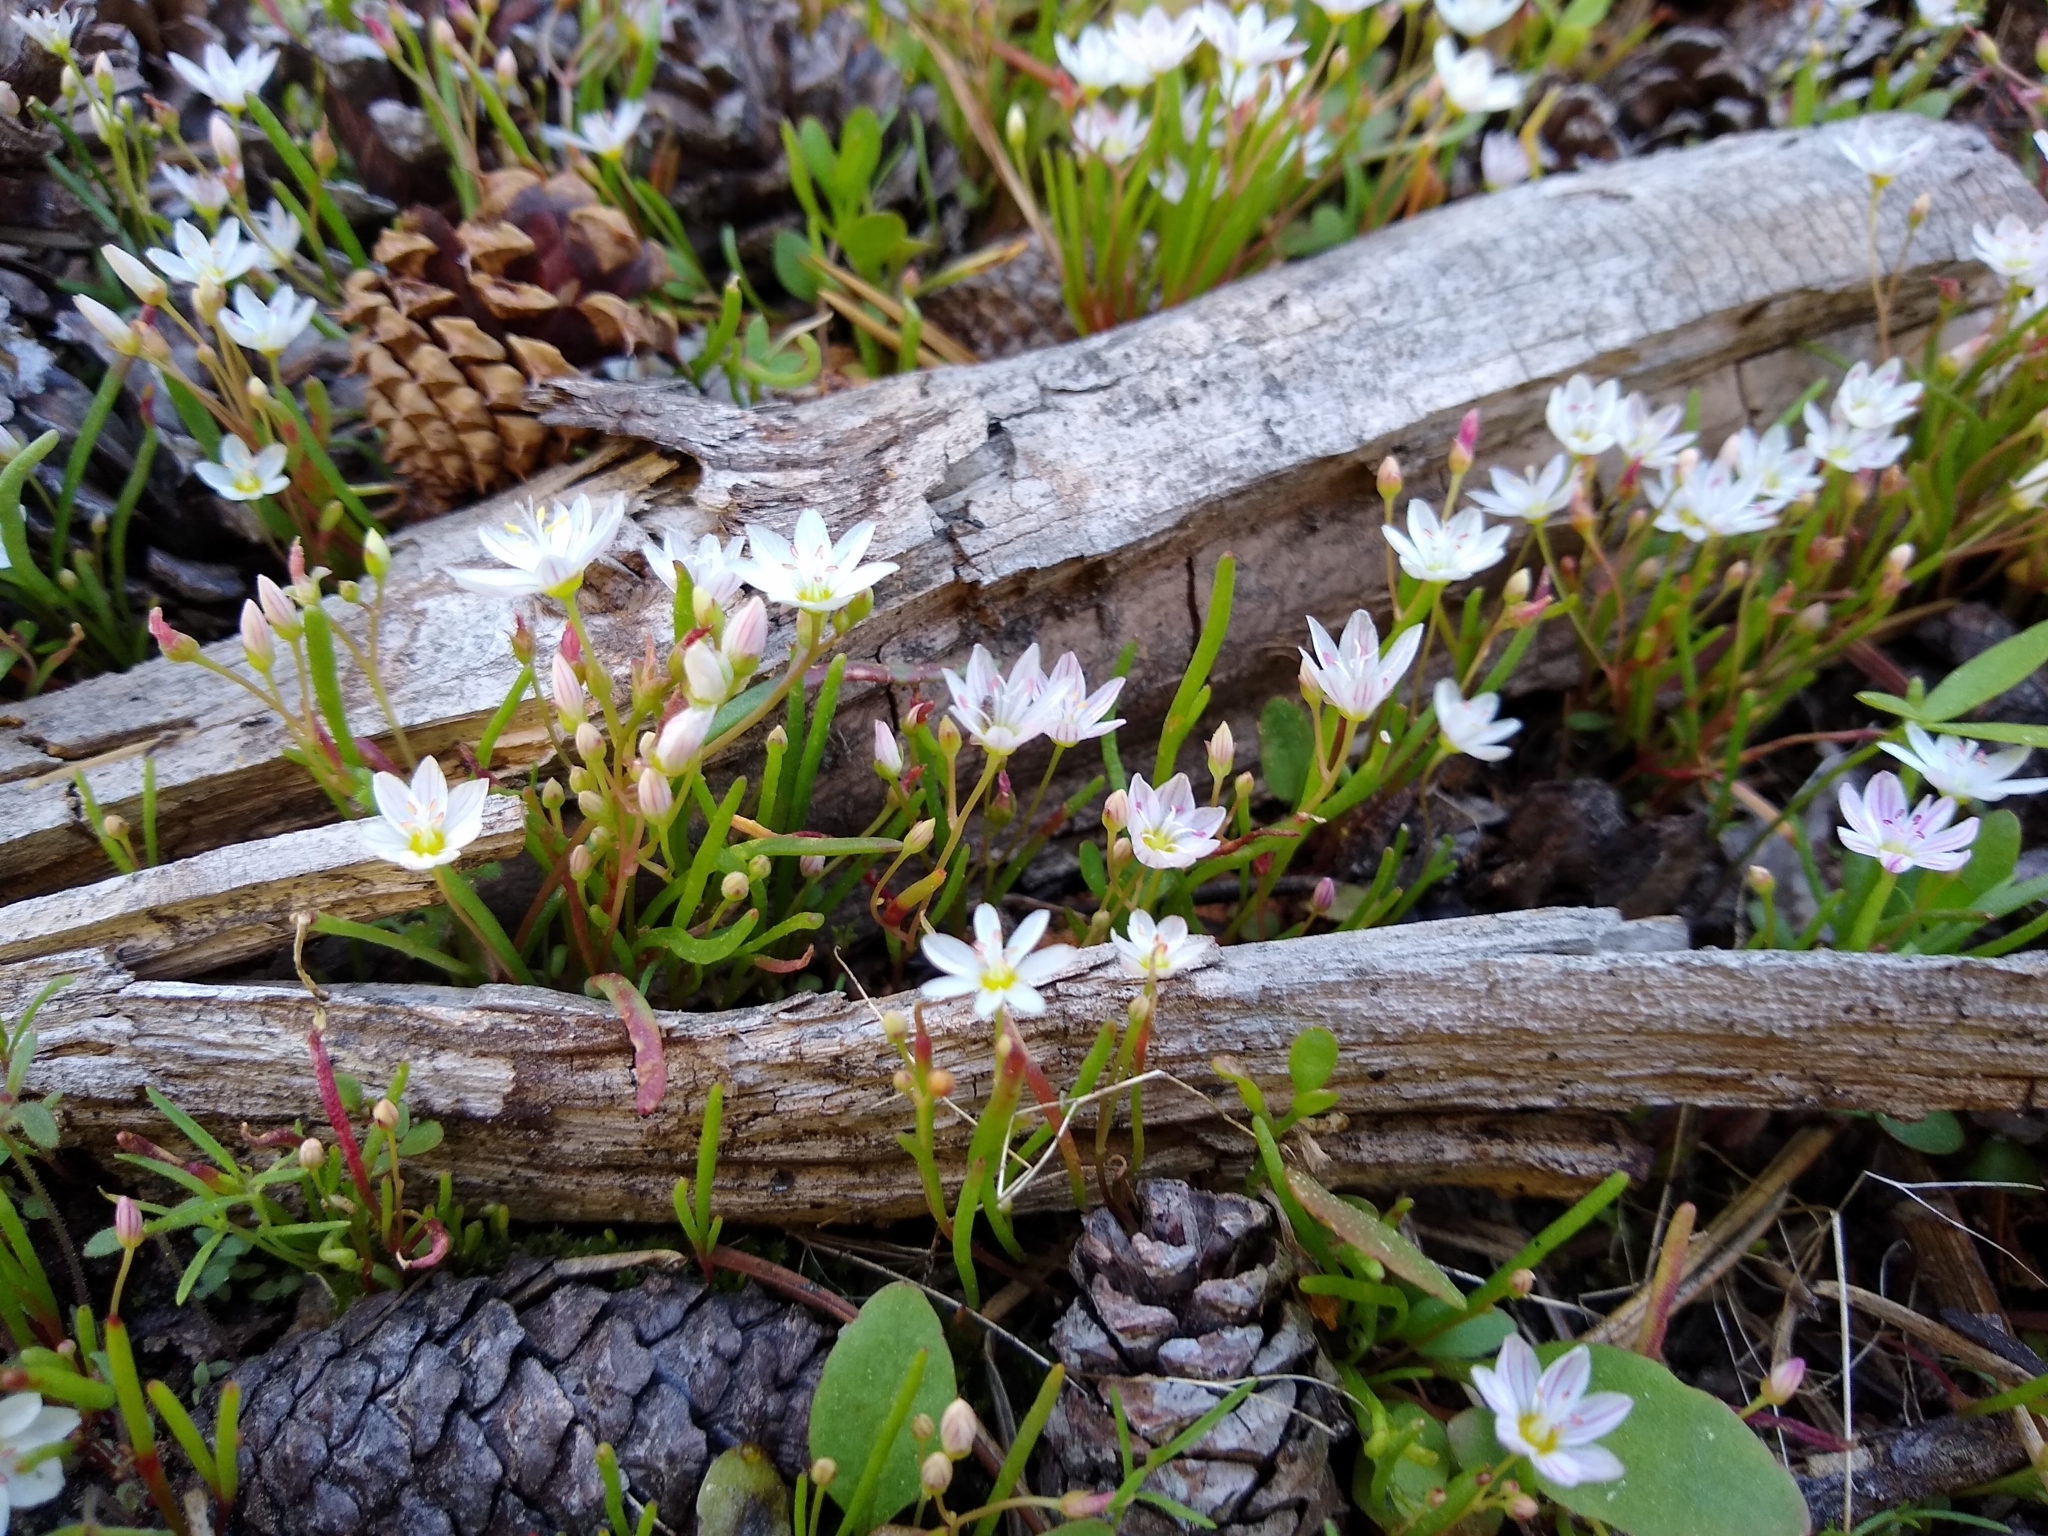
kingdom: Plantae
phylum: Tracheophyta
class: Magnoliopsida
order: Caryophyllales
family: Montiaceae
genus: Lewisia
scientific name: Lewisia triphylla
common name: Three-leaved bitterroot
